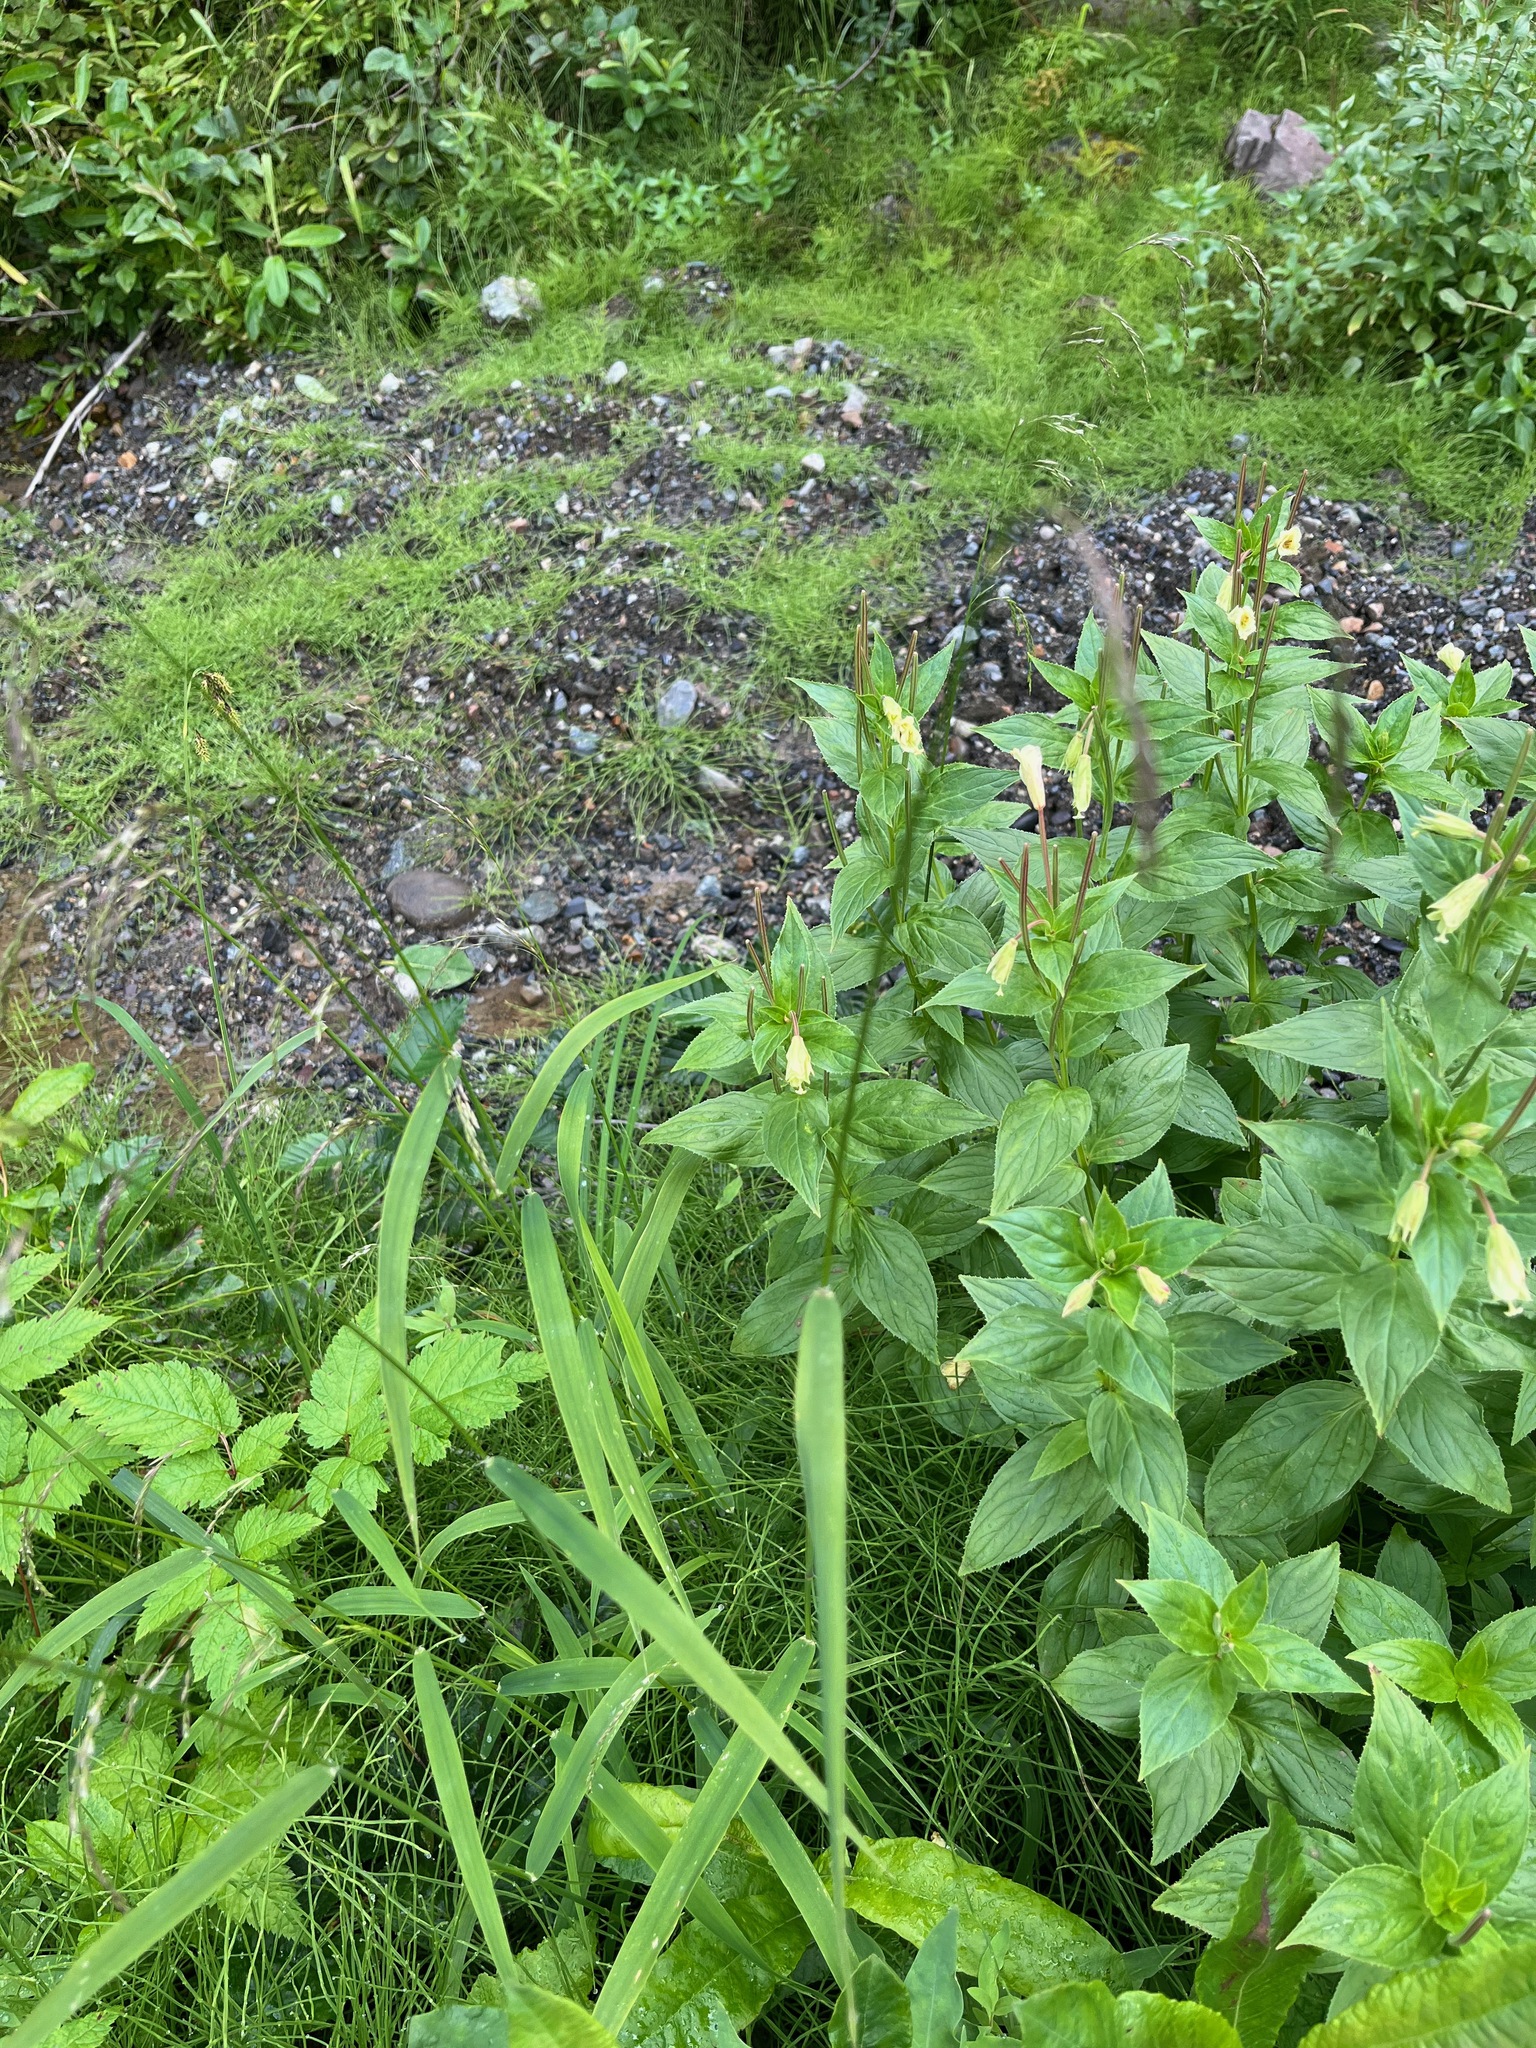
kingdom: Plantae
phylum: Tracheophyta
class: Magnoliopsida
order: Myrtales
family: Onagraceae
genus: Epilobium
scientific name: Epilobium luteum
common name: Yellow willowherb
